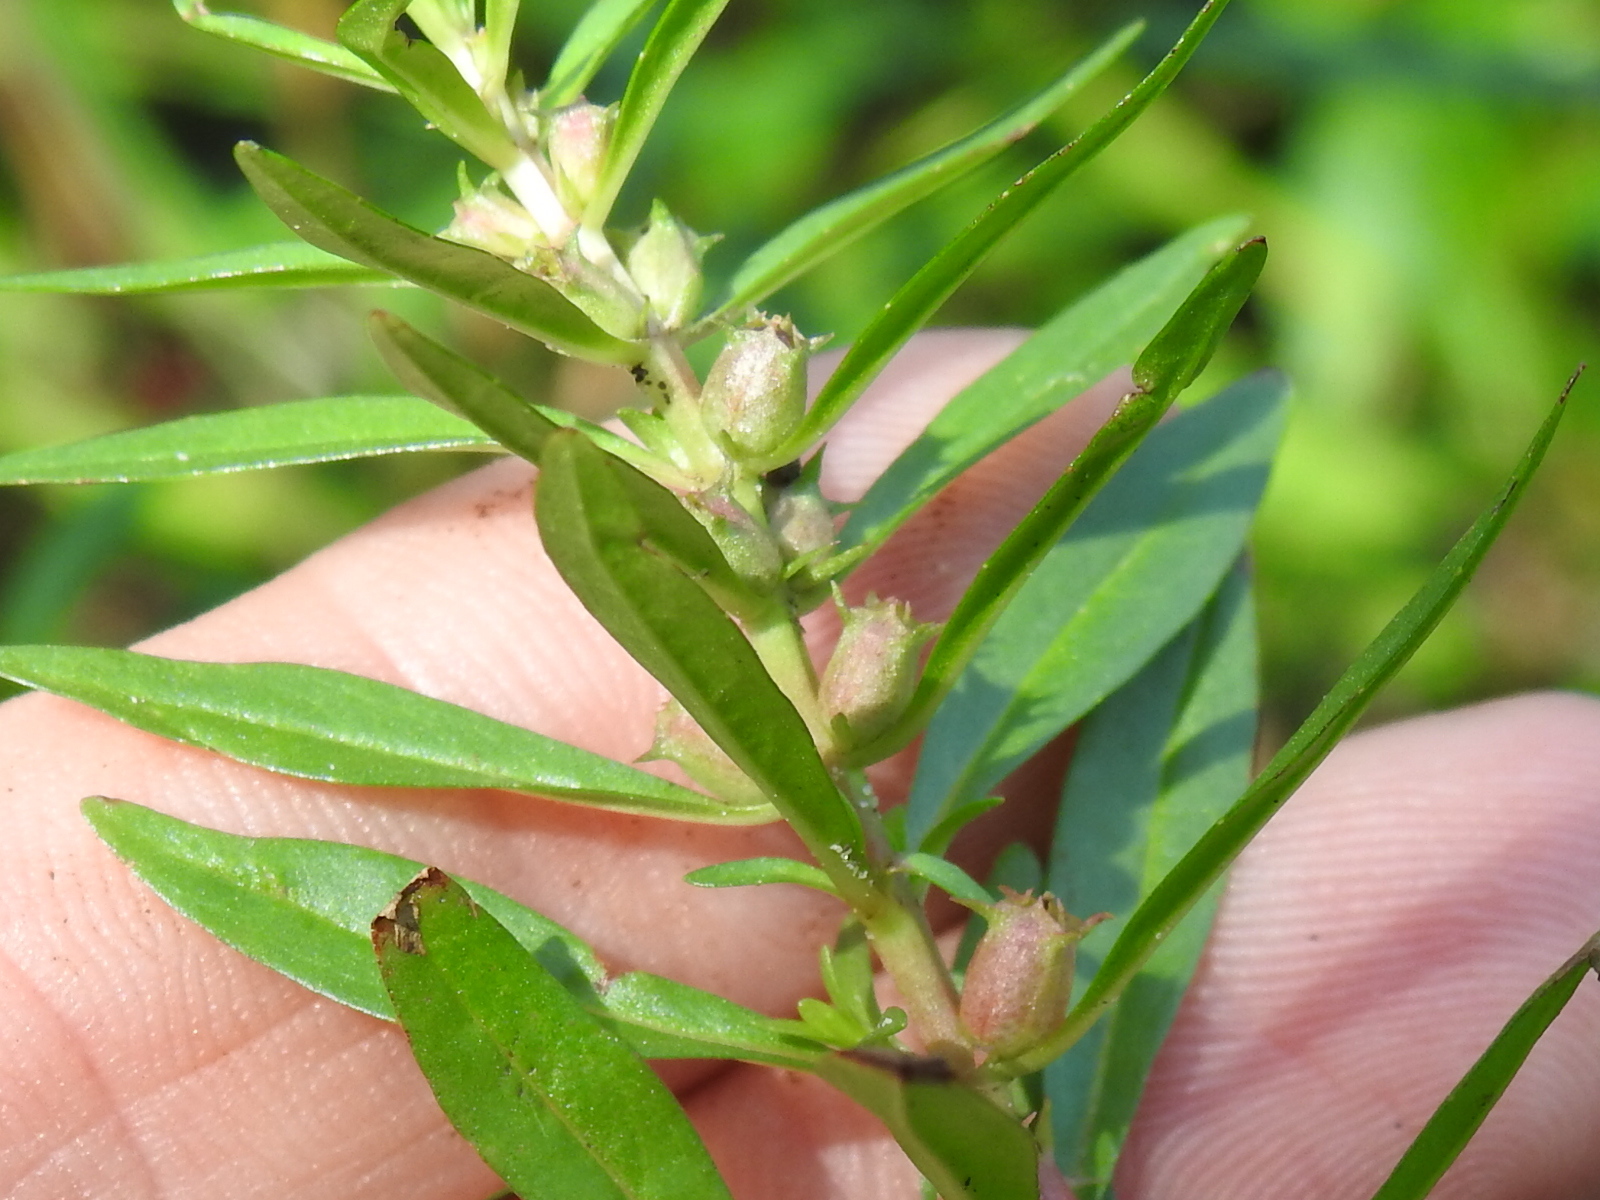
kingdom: Plantae
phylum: Tracheophyta
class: Magnoliopsida
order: Myrtales
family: Lythraceae
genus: Rotala
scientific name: Rotala ramosior
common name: Lowland rotala
